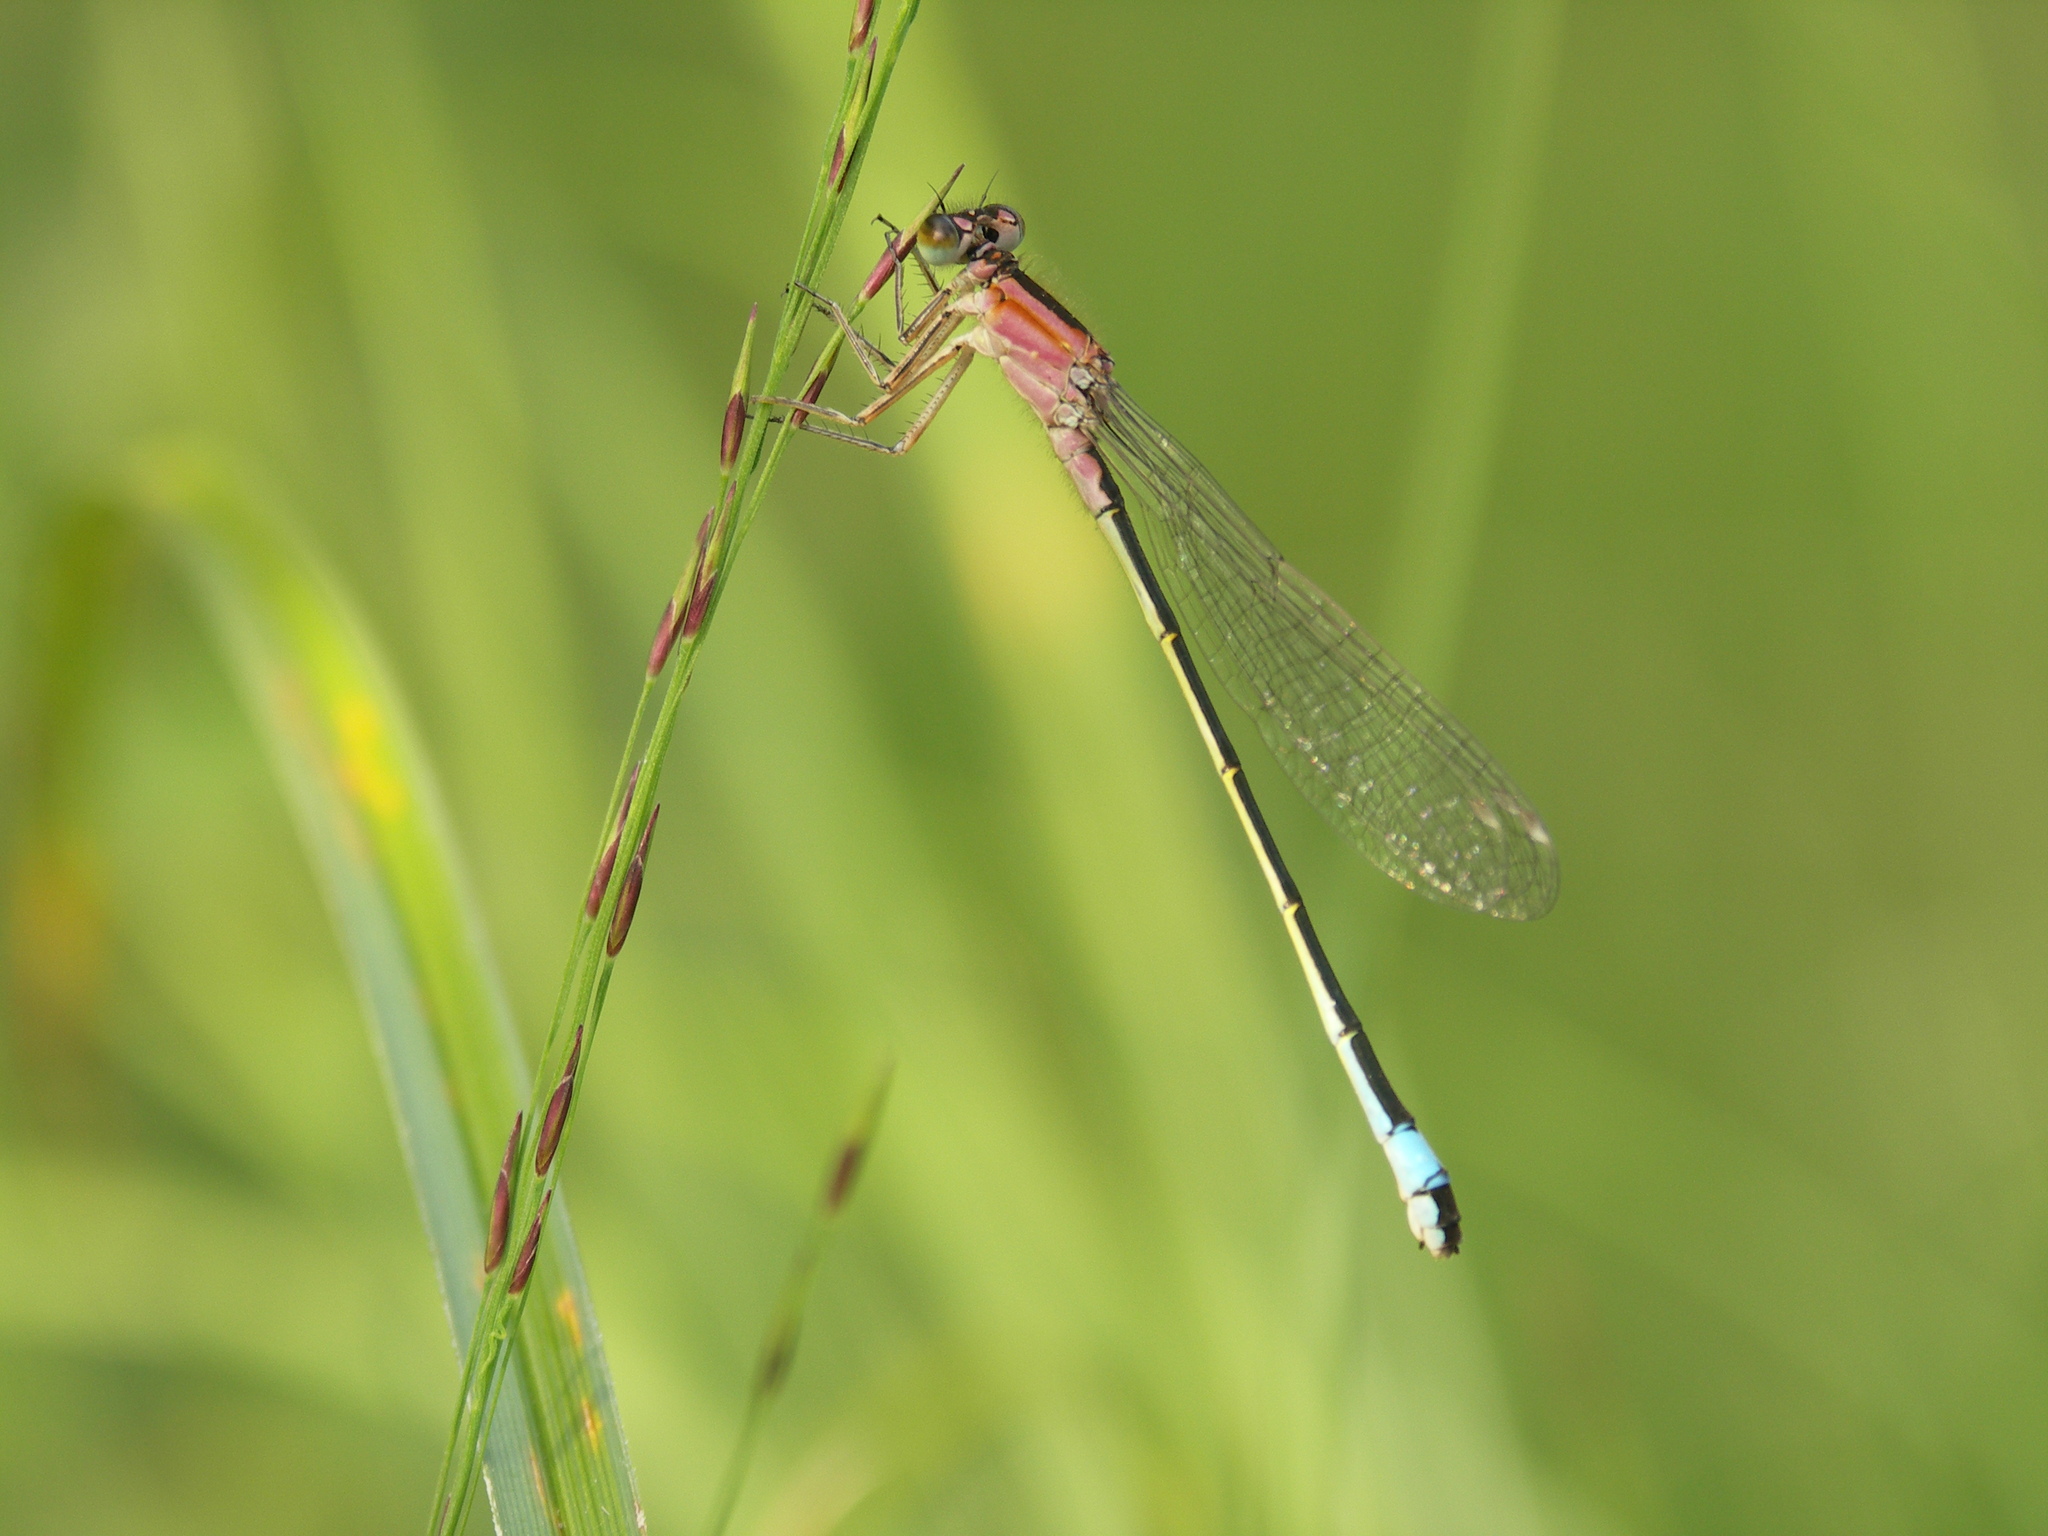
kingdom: Animalia
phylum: Arthropoda
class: Insecta
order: Odonata
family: Coenagrionidae
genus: Ischnura
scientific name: Ischnura elegans
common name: Blue-tailed damselfly
